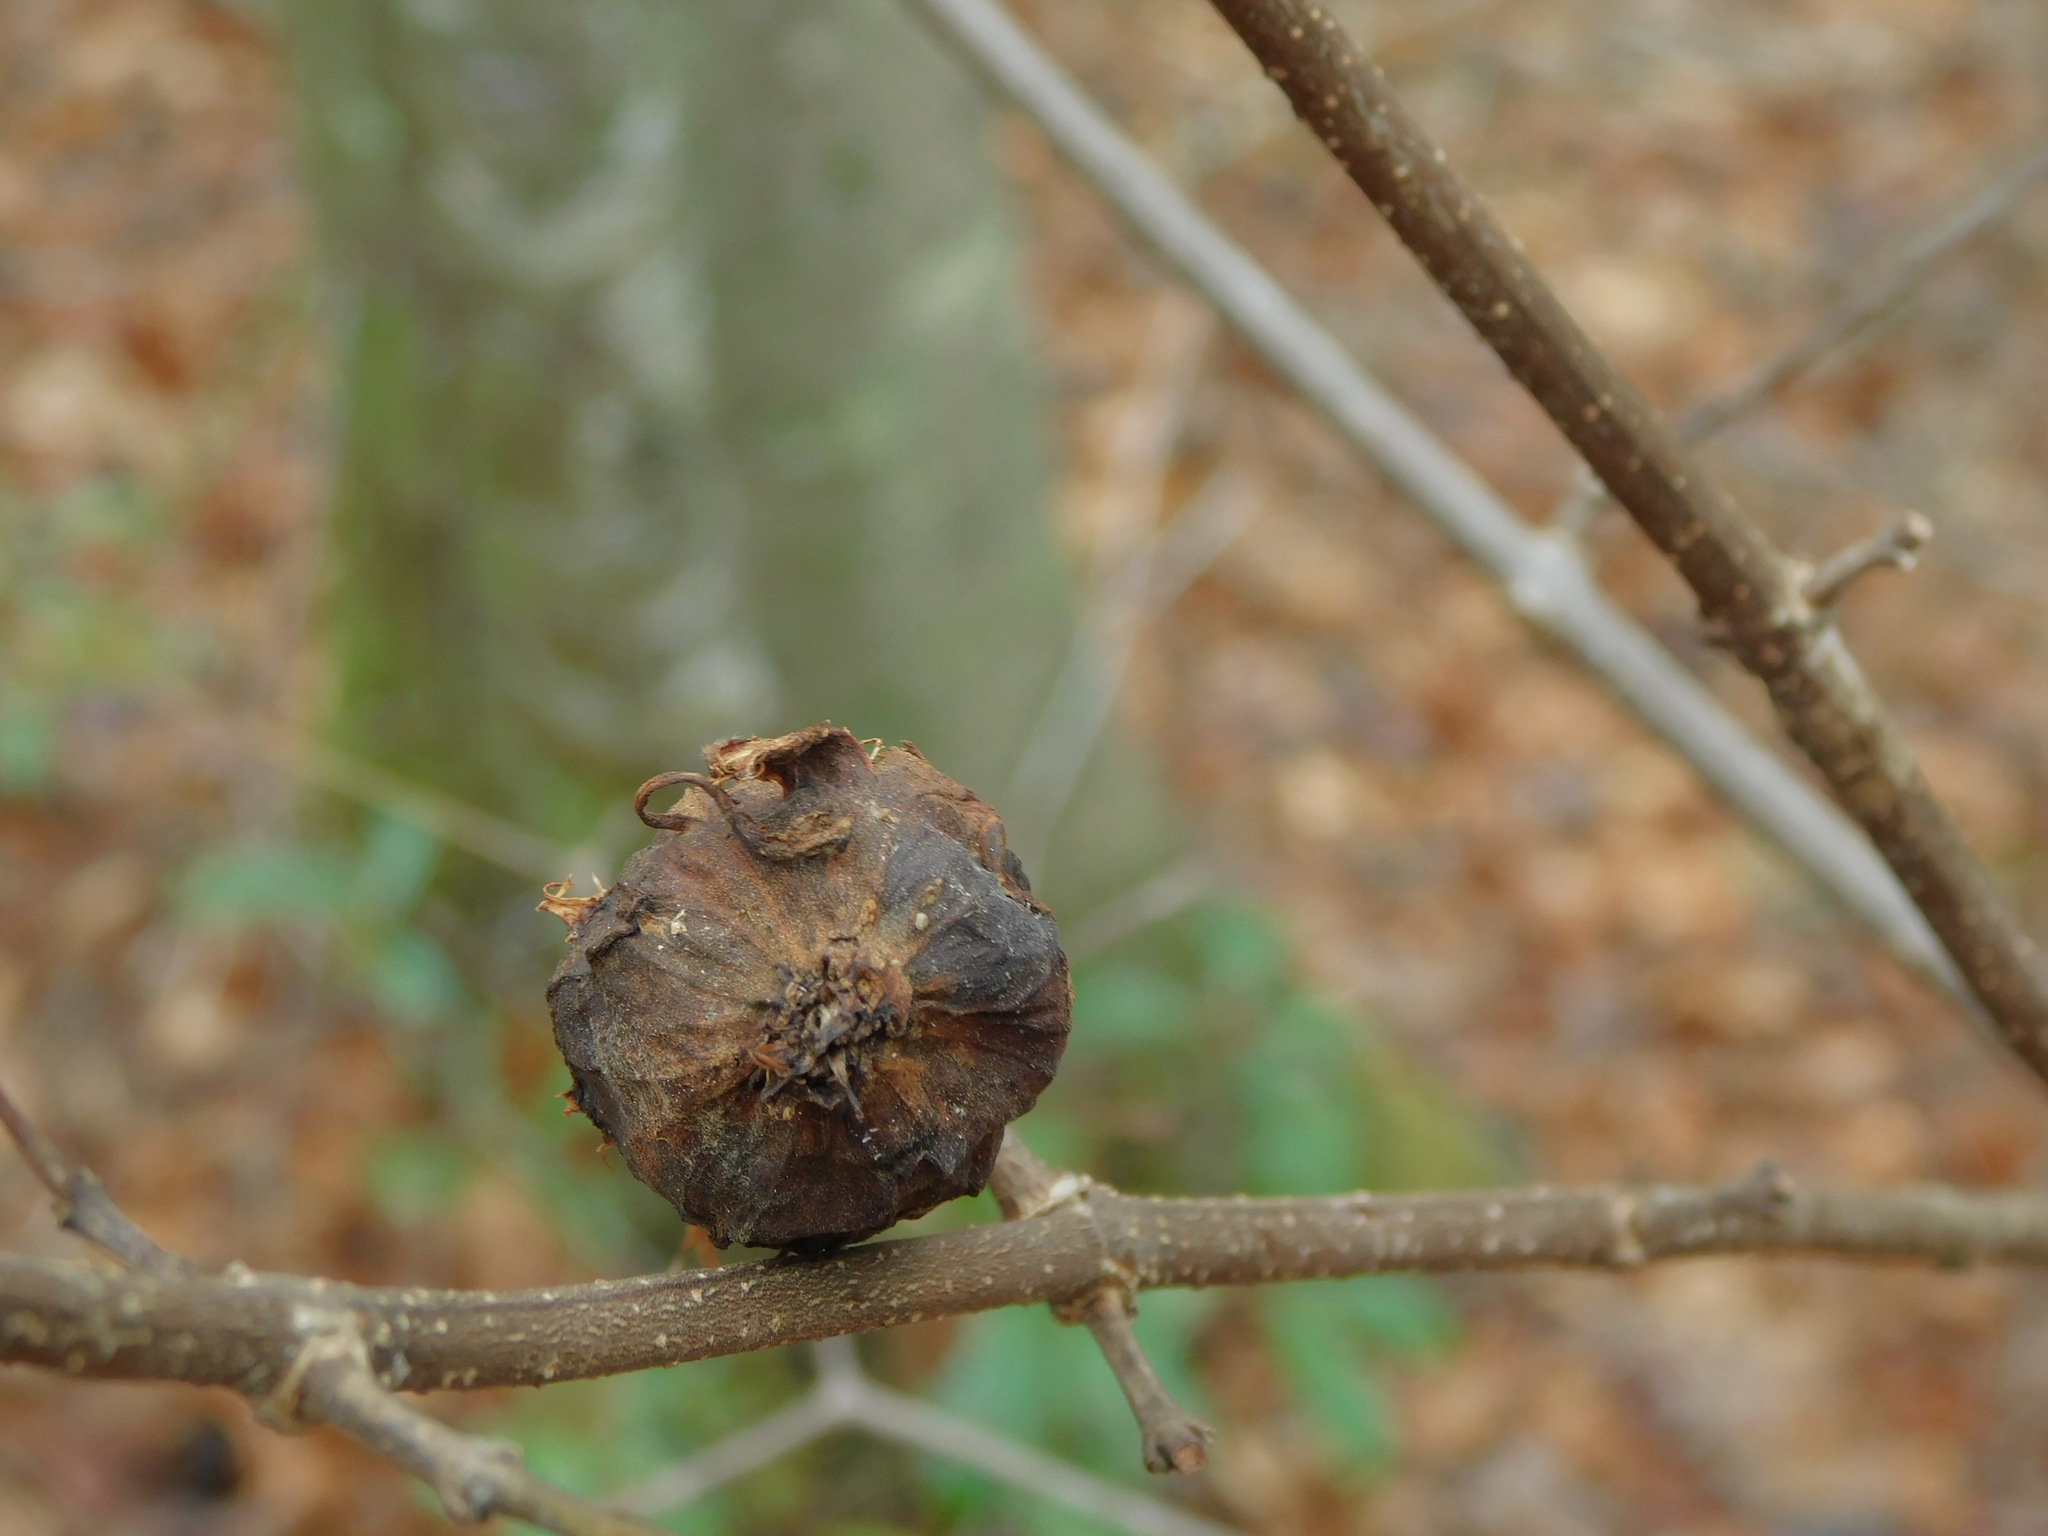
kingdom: Plantae
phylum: Tracheophyta
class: Magnoliopsida
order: Laurales
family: Calycanthaceae
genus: Calycanthus
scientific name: Calycanthus floridus
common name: Carolina-allspice
